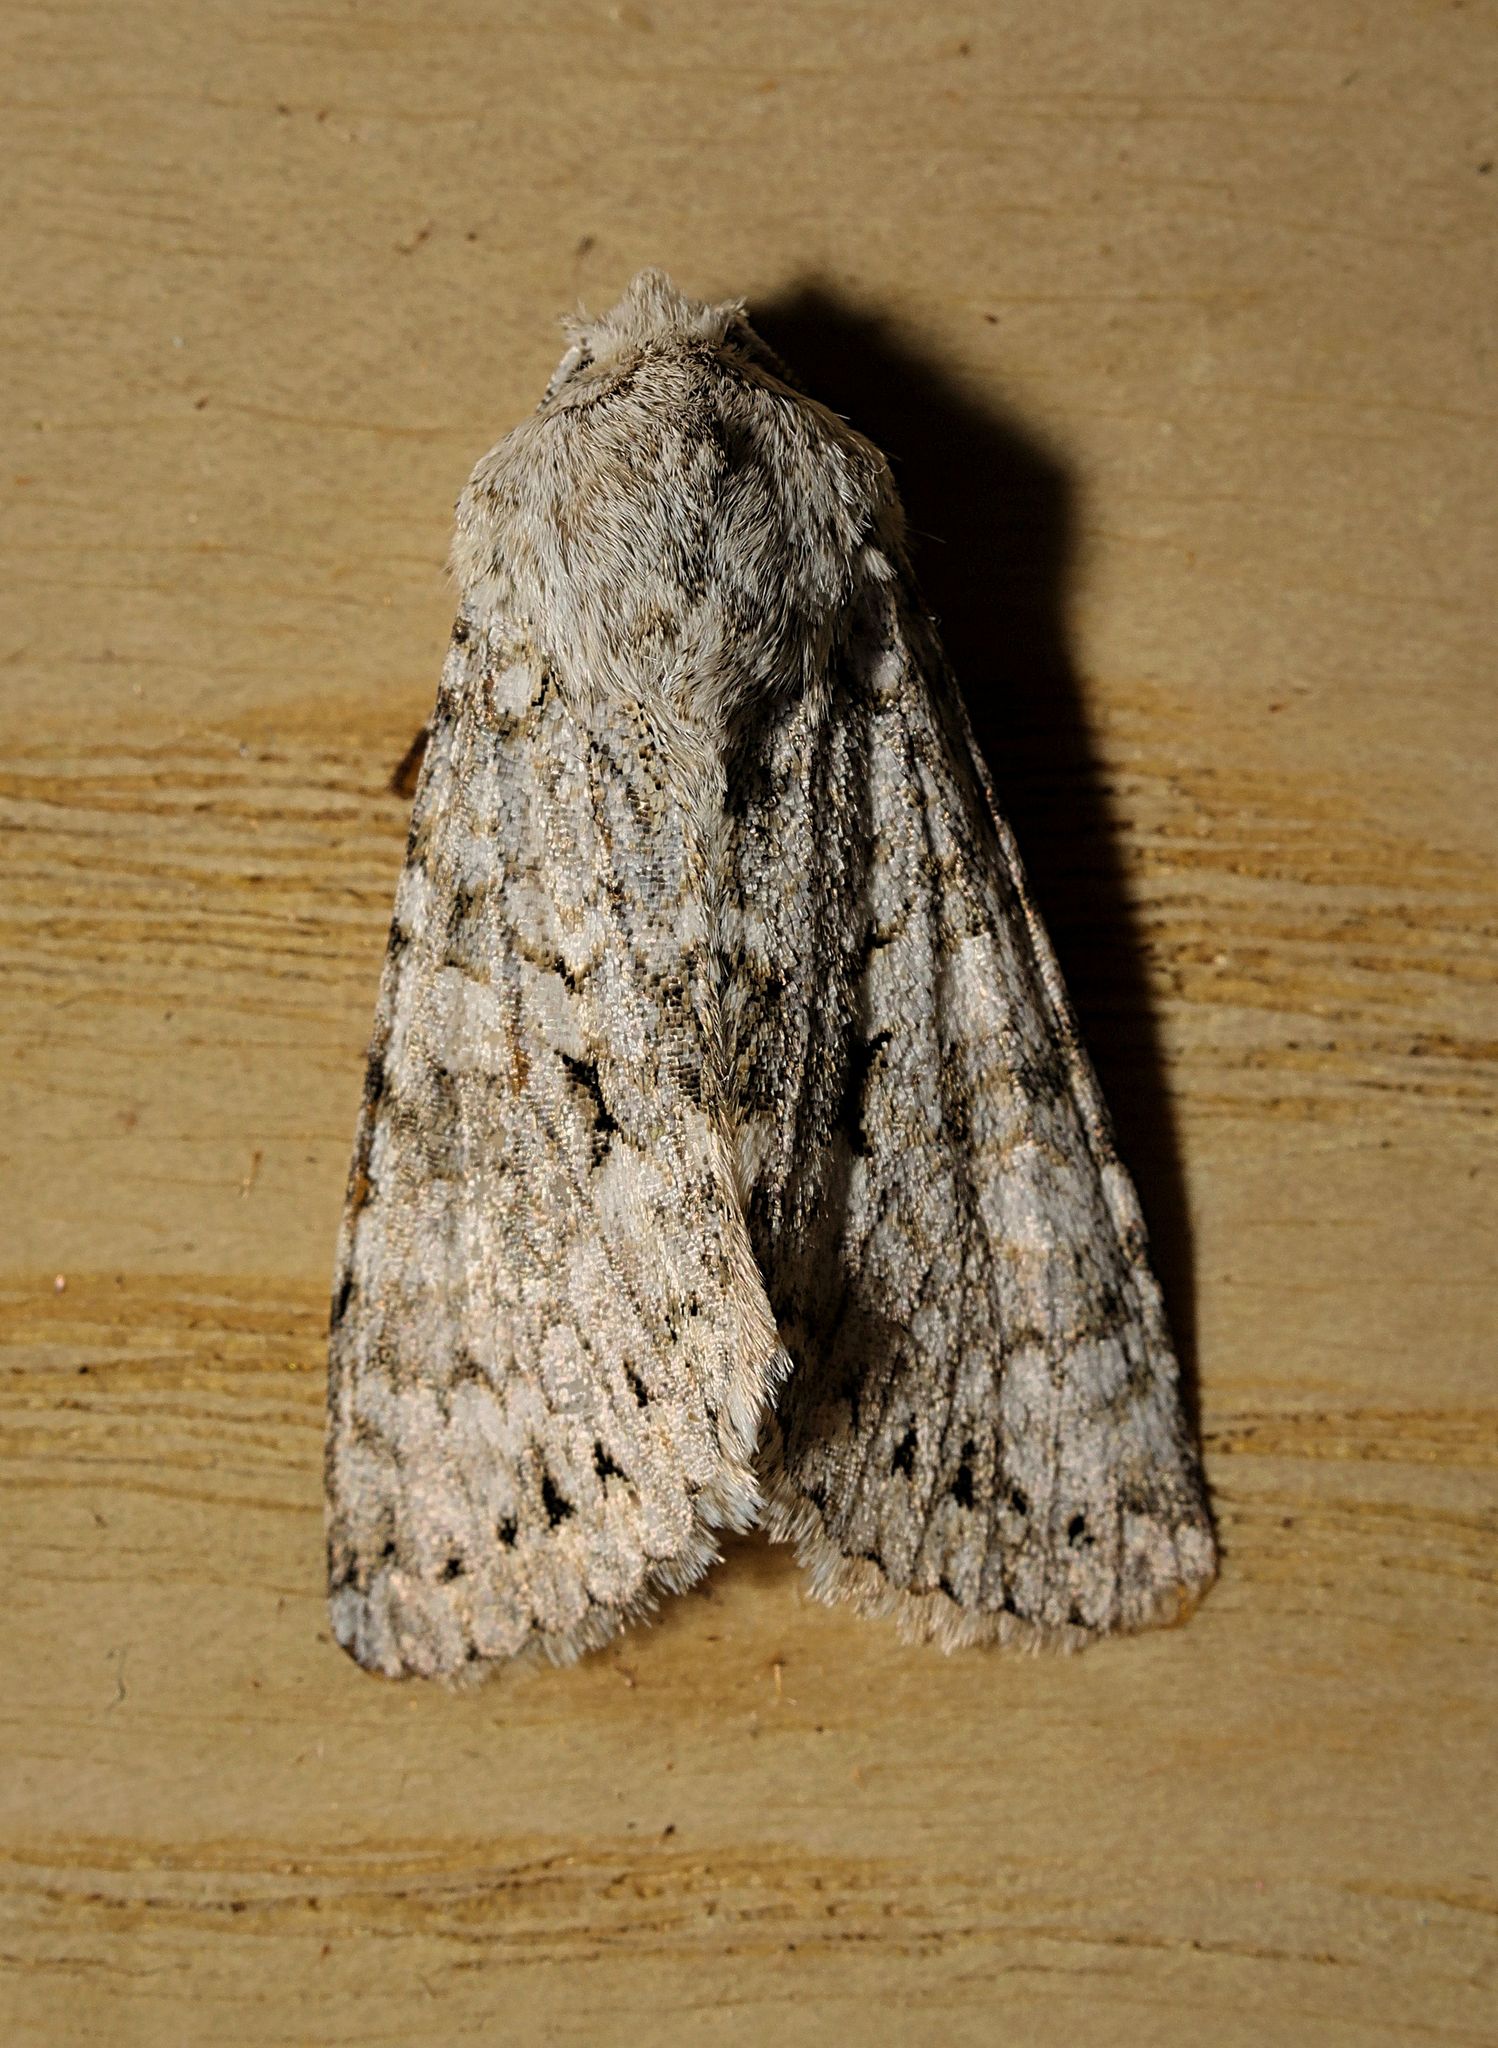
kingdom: Animalia
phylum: Arthropoda
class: Insecta
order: Lepidoptera
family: Noctuidae
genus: Antitype
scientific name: Antitype chi
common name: Grey chi
